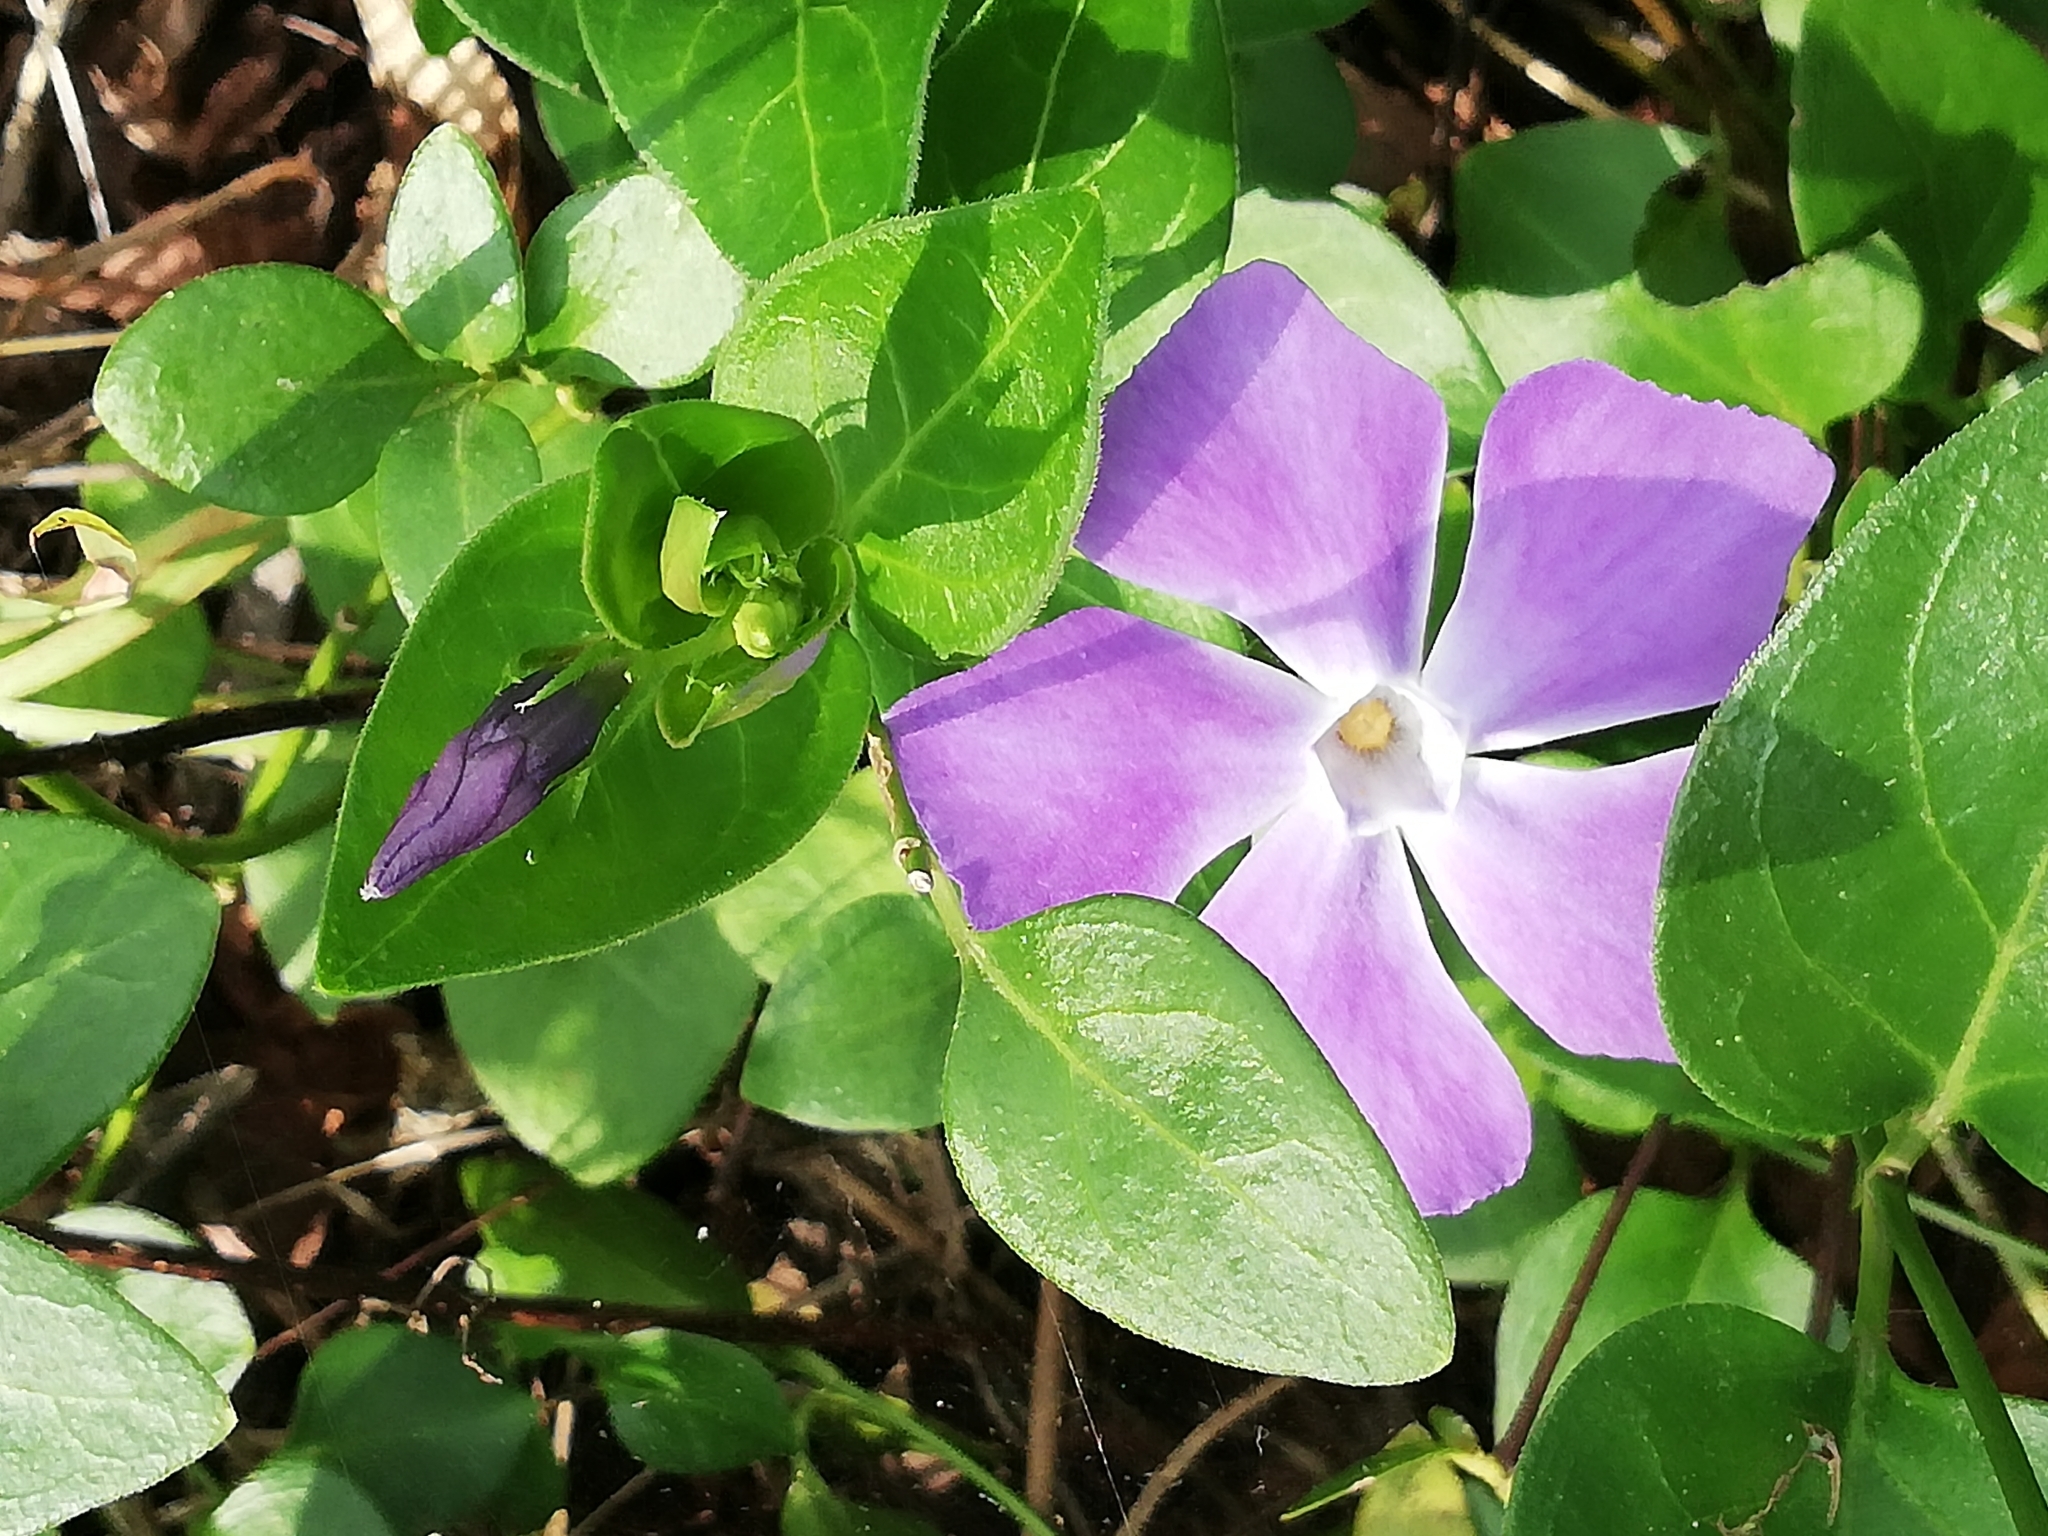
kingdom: Plantae
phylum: Tracheophyta
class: Magnoliopsida
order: Gentianales
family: Apocynaceae
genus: Vinca
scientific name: Vinca major
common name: Greater periwinkle
